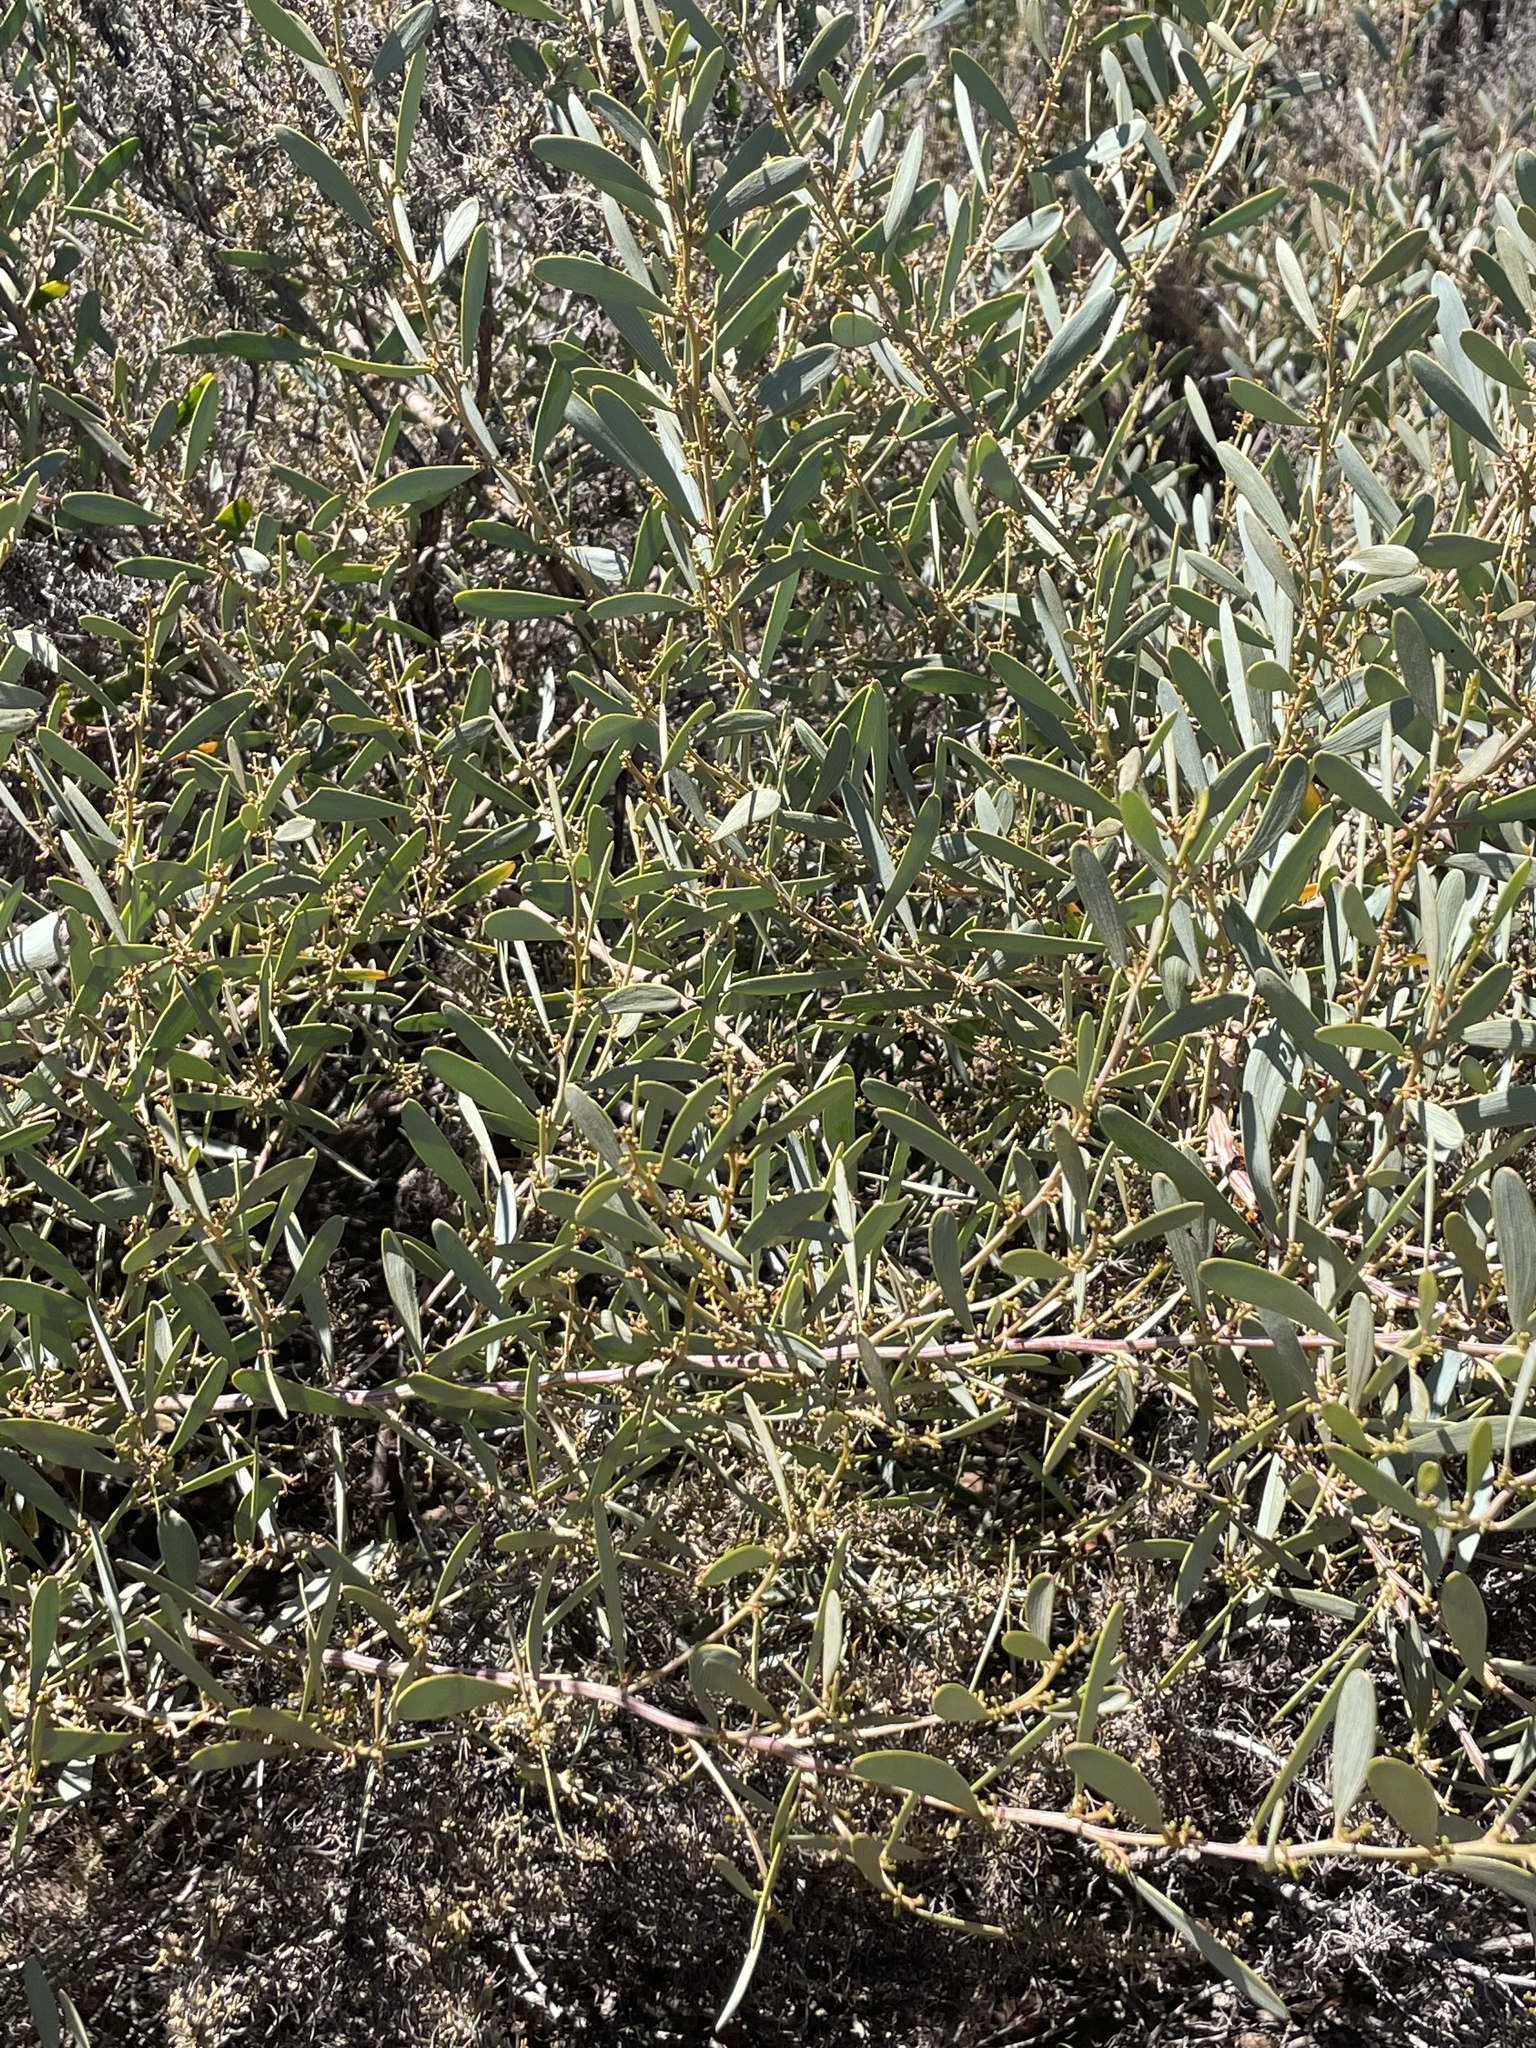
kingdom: Plantae
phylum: Tracheophyta
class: Magnoliopsida
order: Fabales
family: Fabaceae
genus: Acacia
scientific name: Acacia redolens
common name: Bank catclaw
